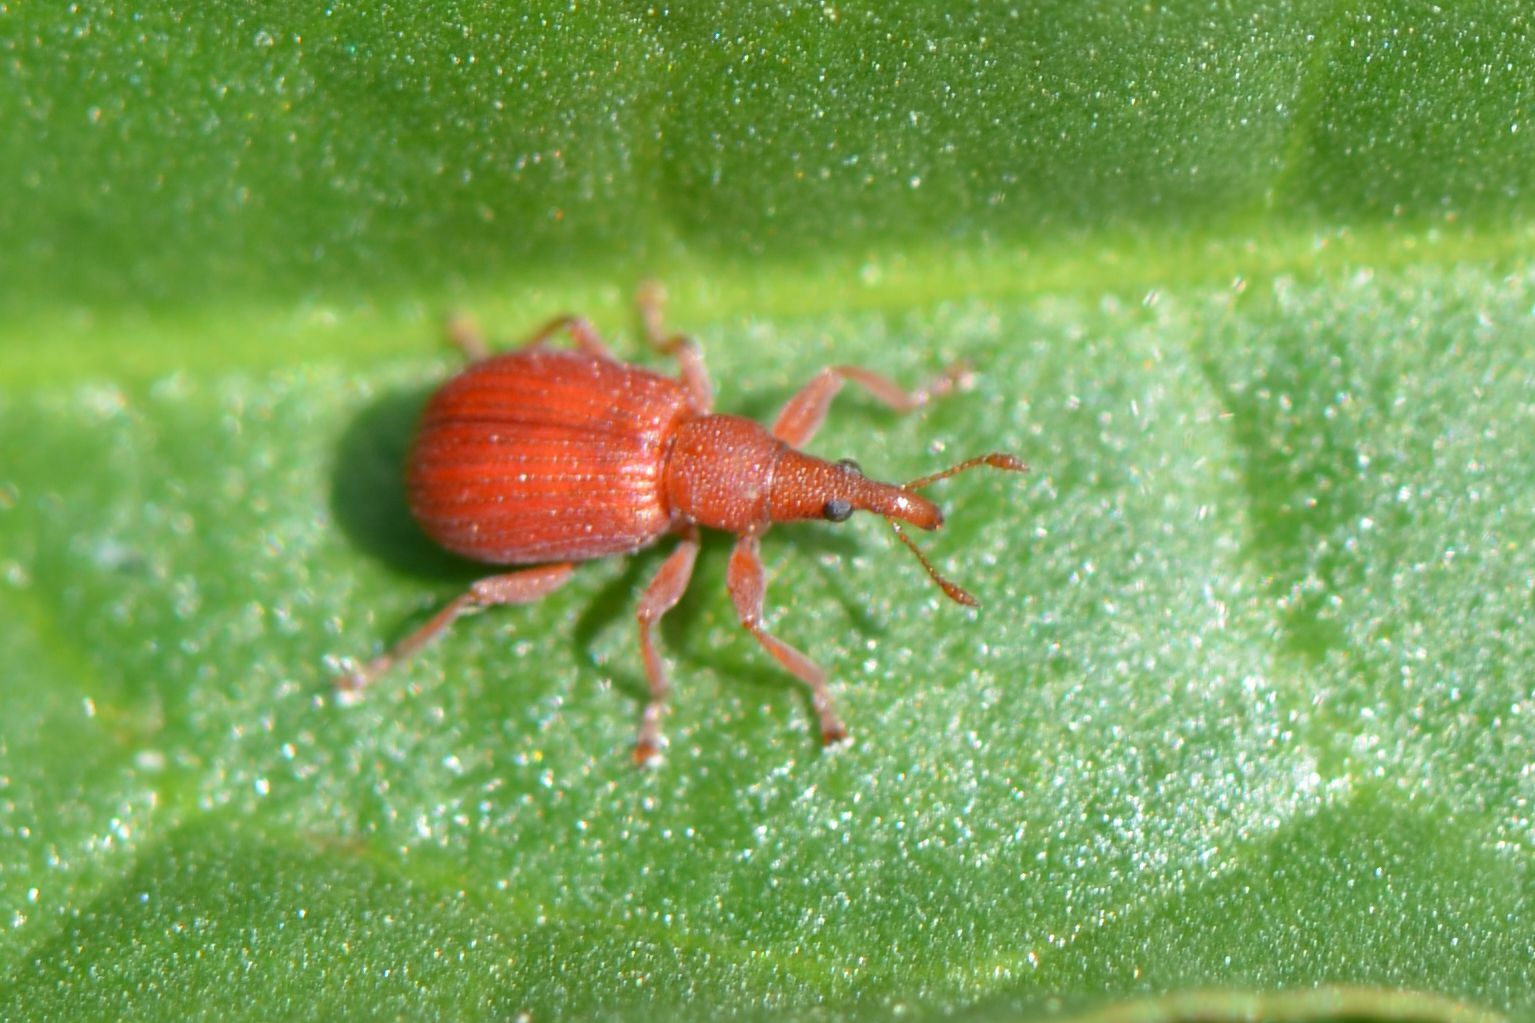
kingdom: Animalia
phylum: Arthropoda
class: Insecta
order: Coleoptera
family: Apionidae
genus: Apion
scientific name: Apion frumentarium
